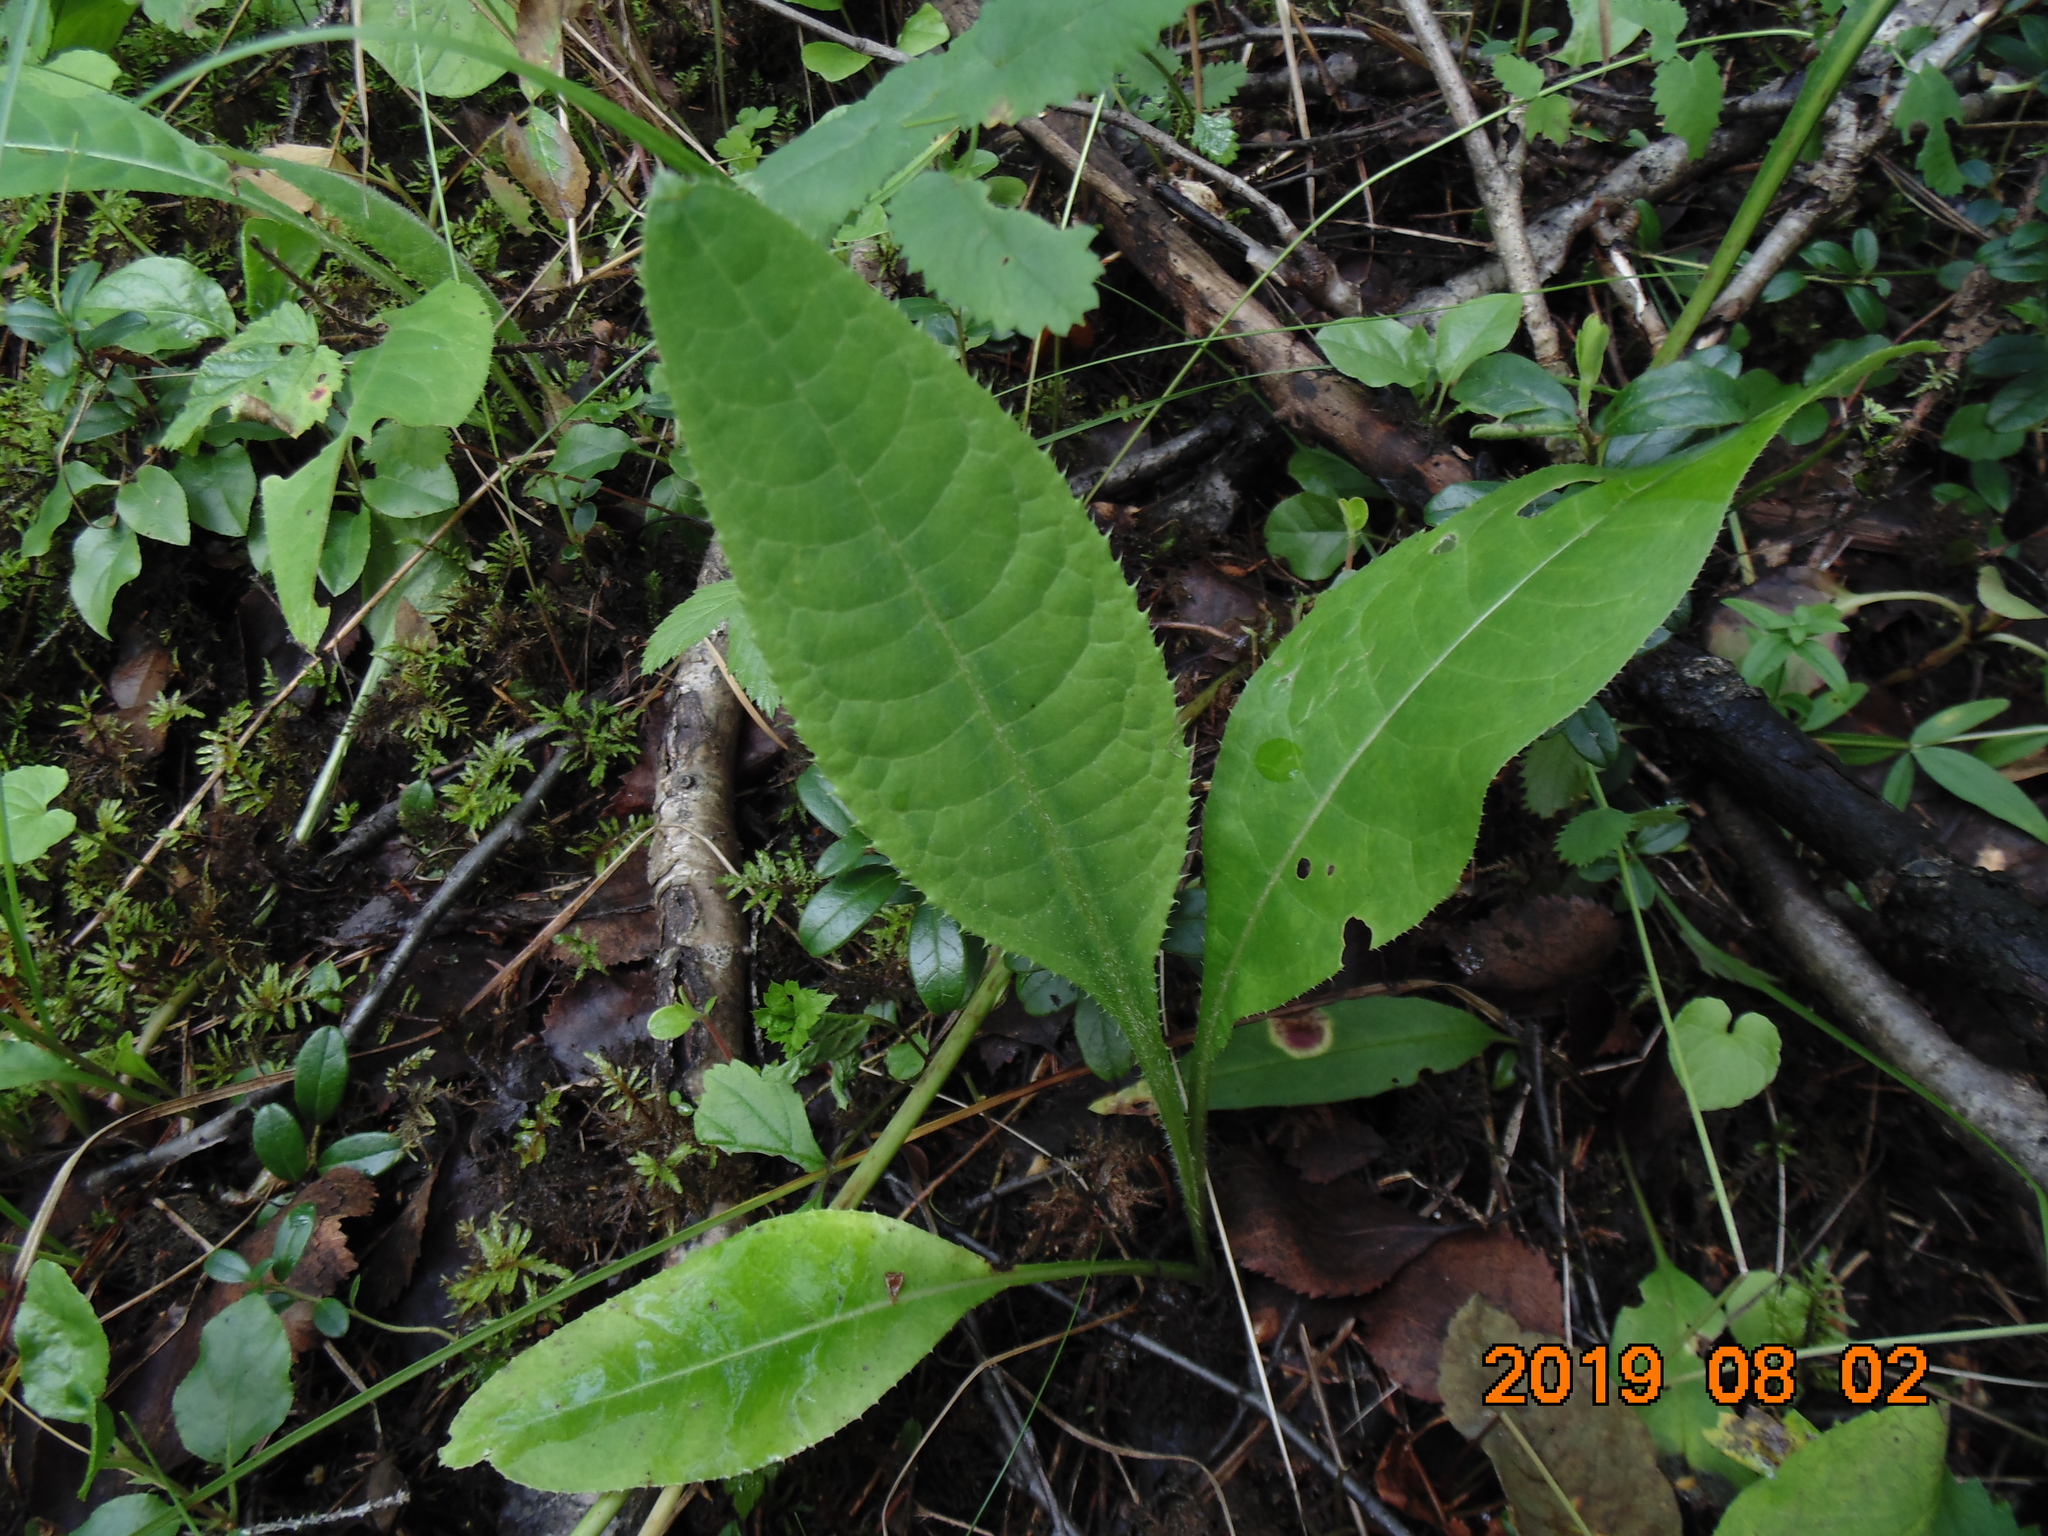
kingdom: Plantae
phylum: Tracheophyta
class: Magnoliopsida
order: Asterales
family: Asteraceae
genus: Cirsium
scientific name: Cirsium heterophyllum
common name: Melancholy thistle
